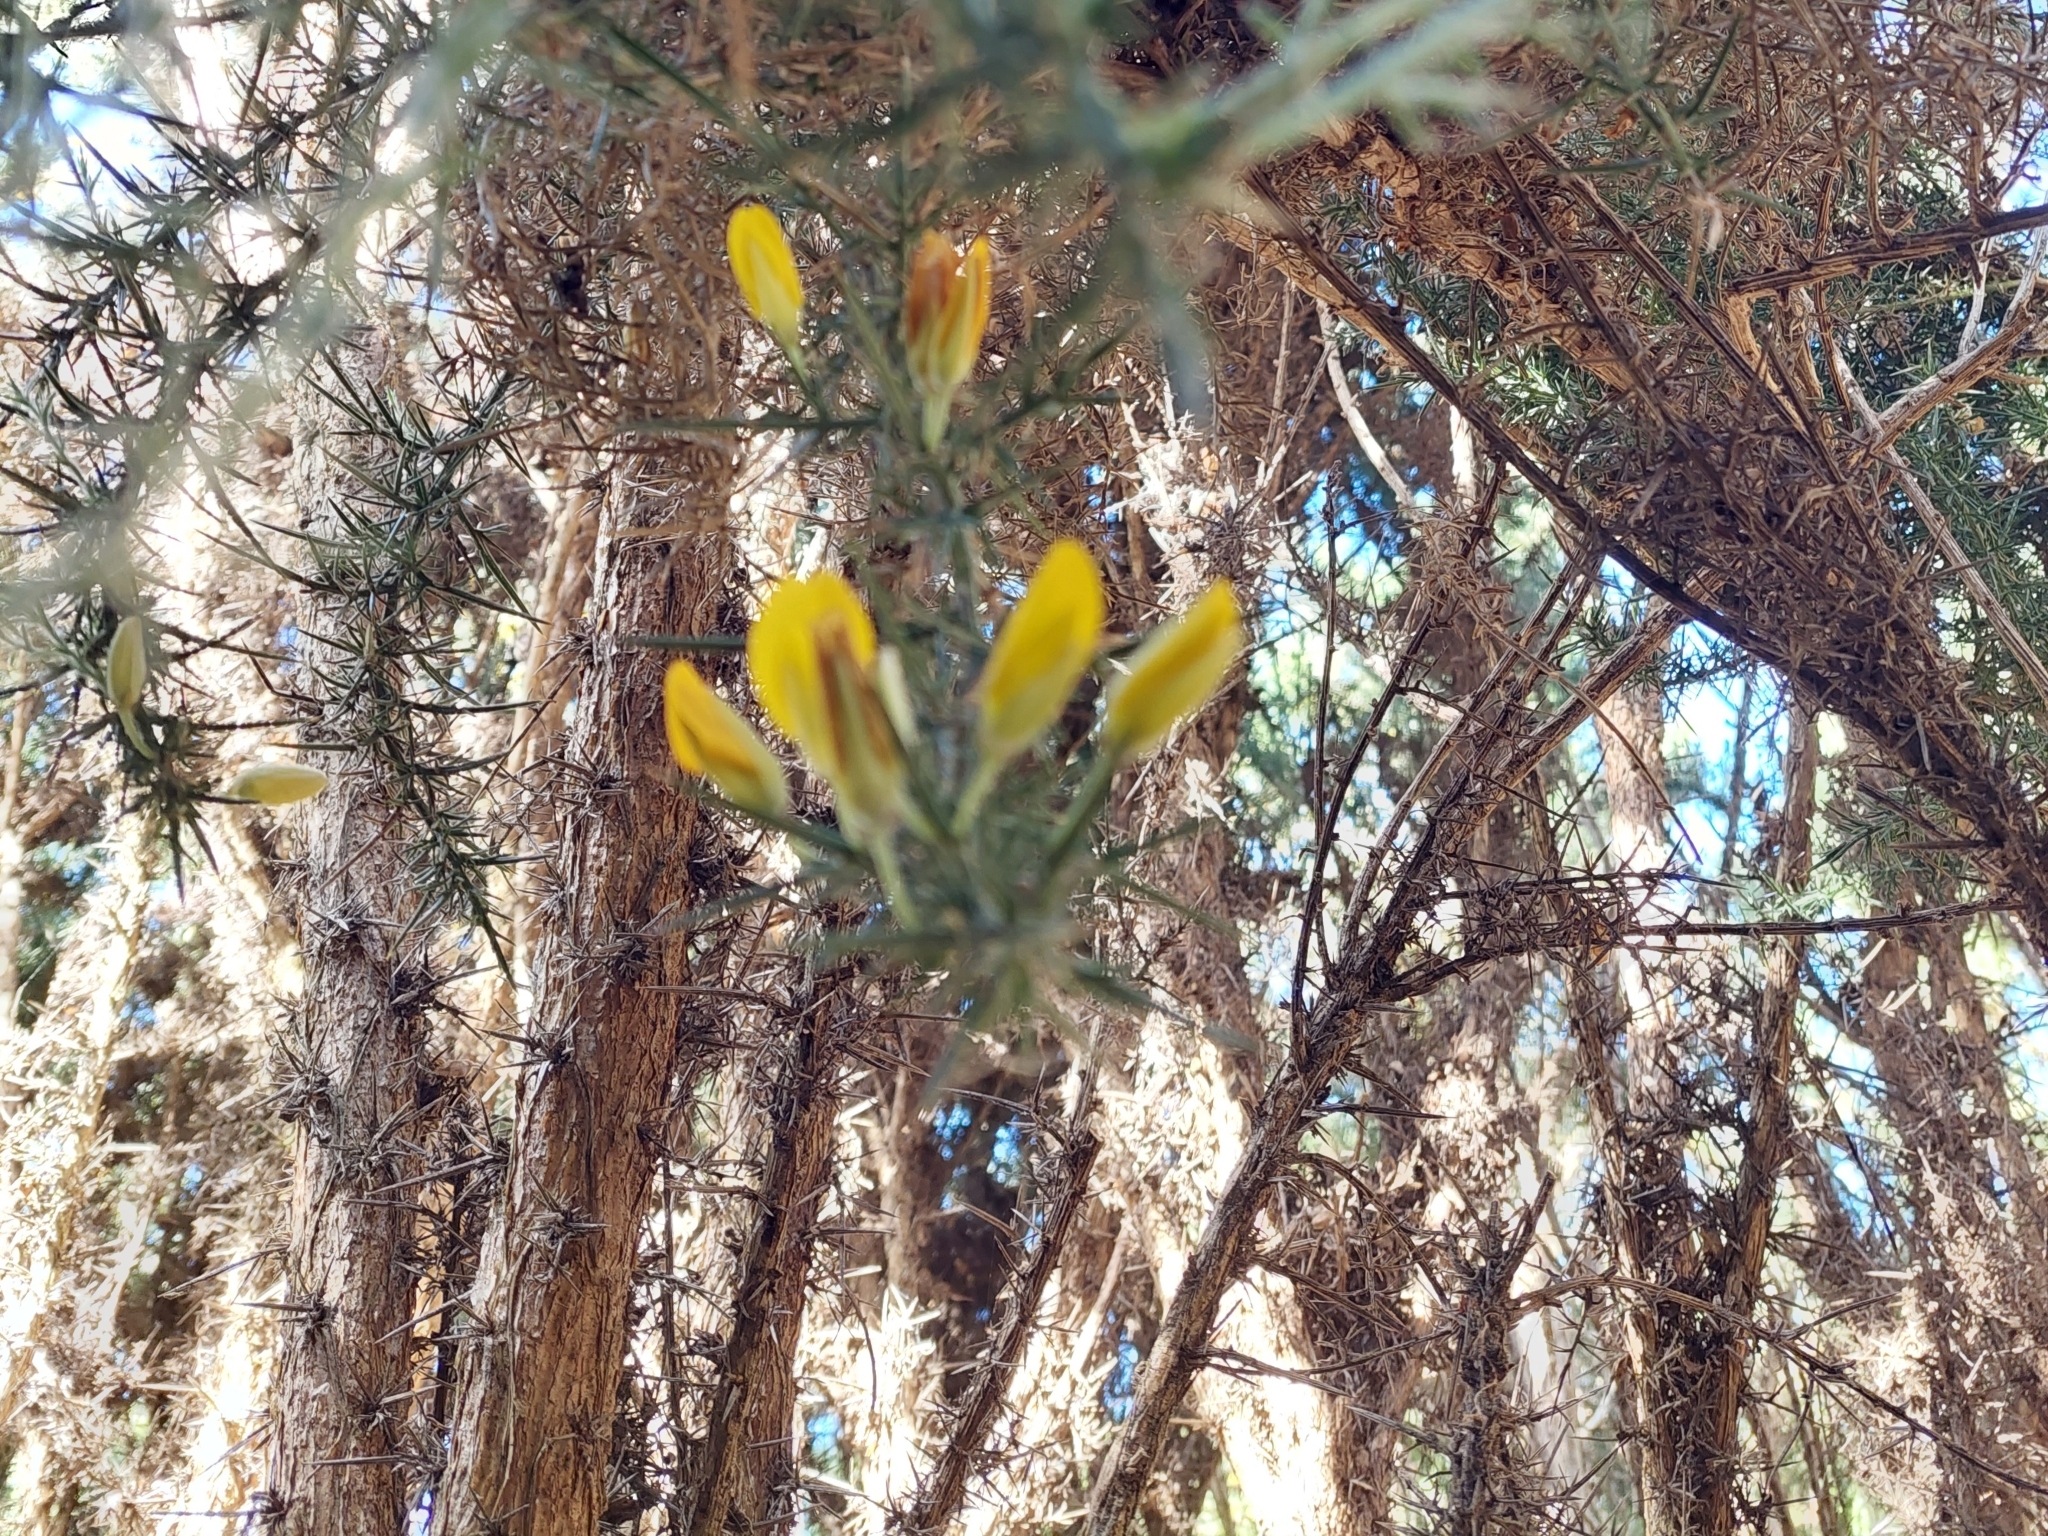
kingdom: Plantae
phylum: Tracheophyta
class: Magnoliopsida
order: Fabales
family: Fabaceae
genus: Ulex
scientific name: Ulex europaeus
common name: Common gorse
